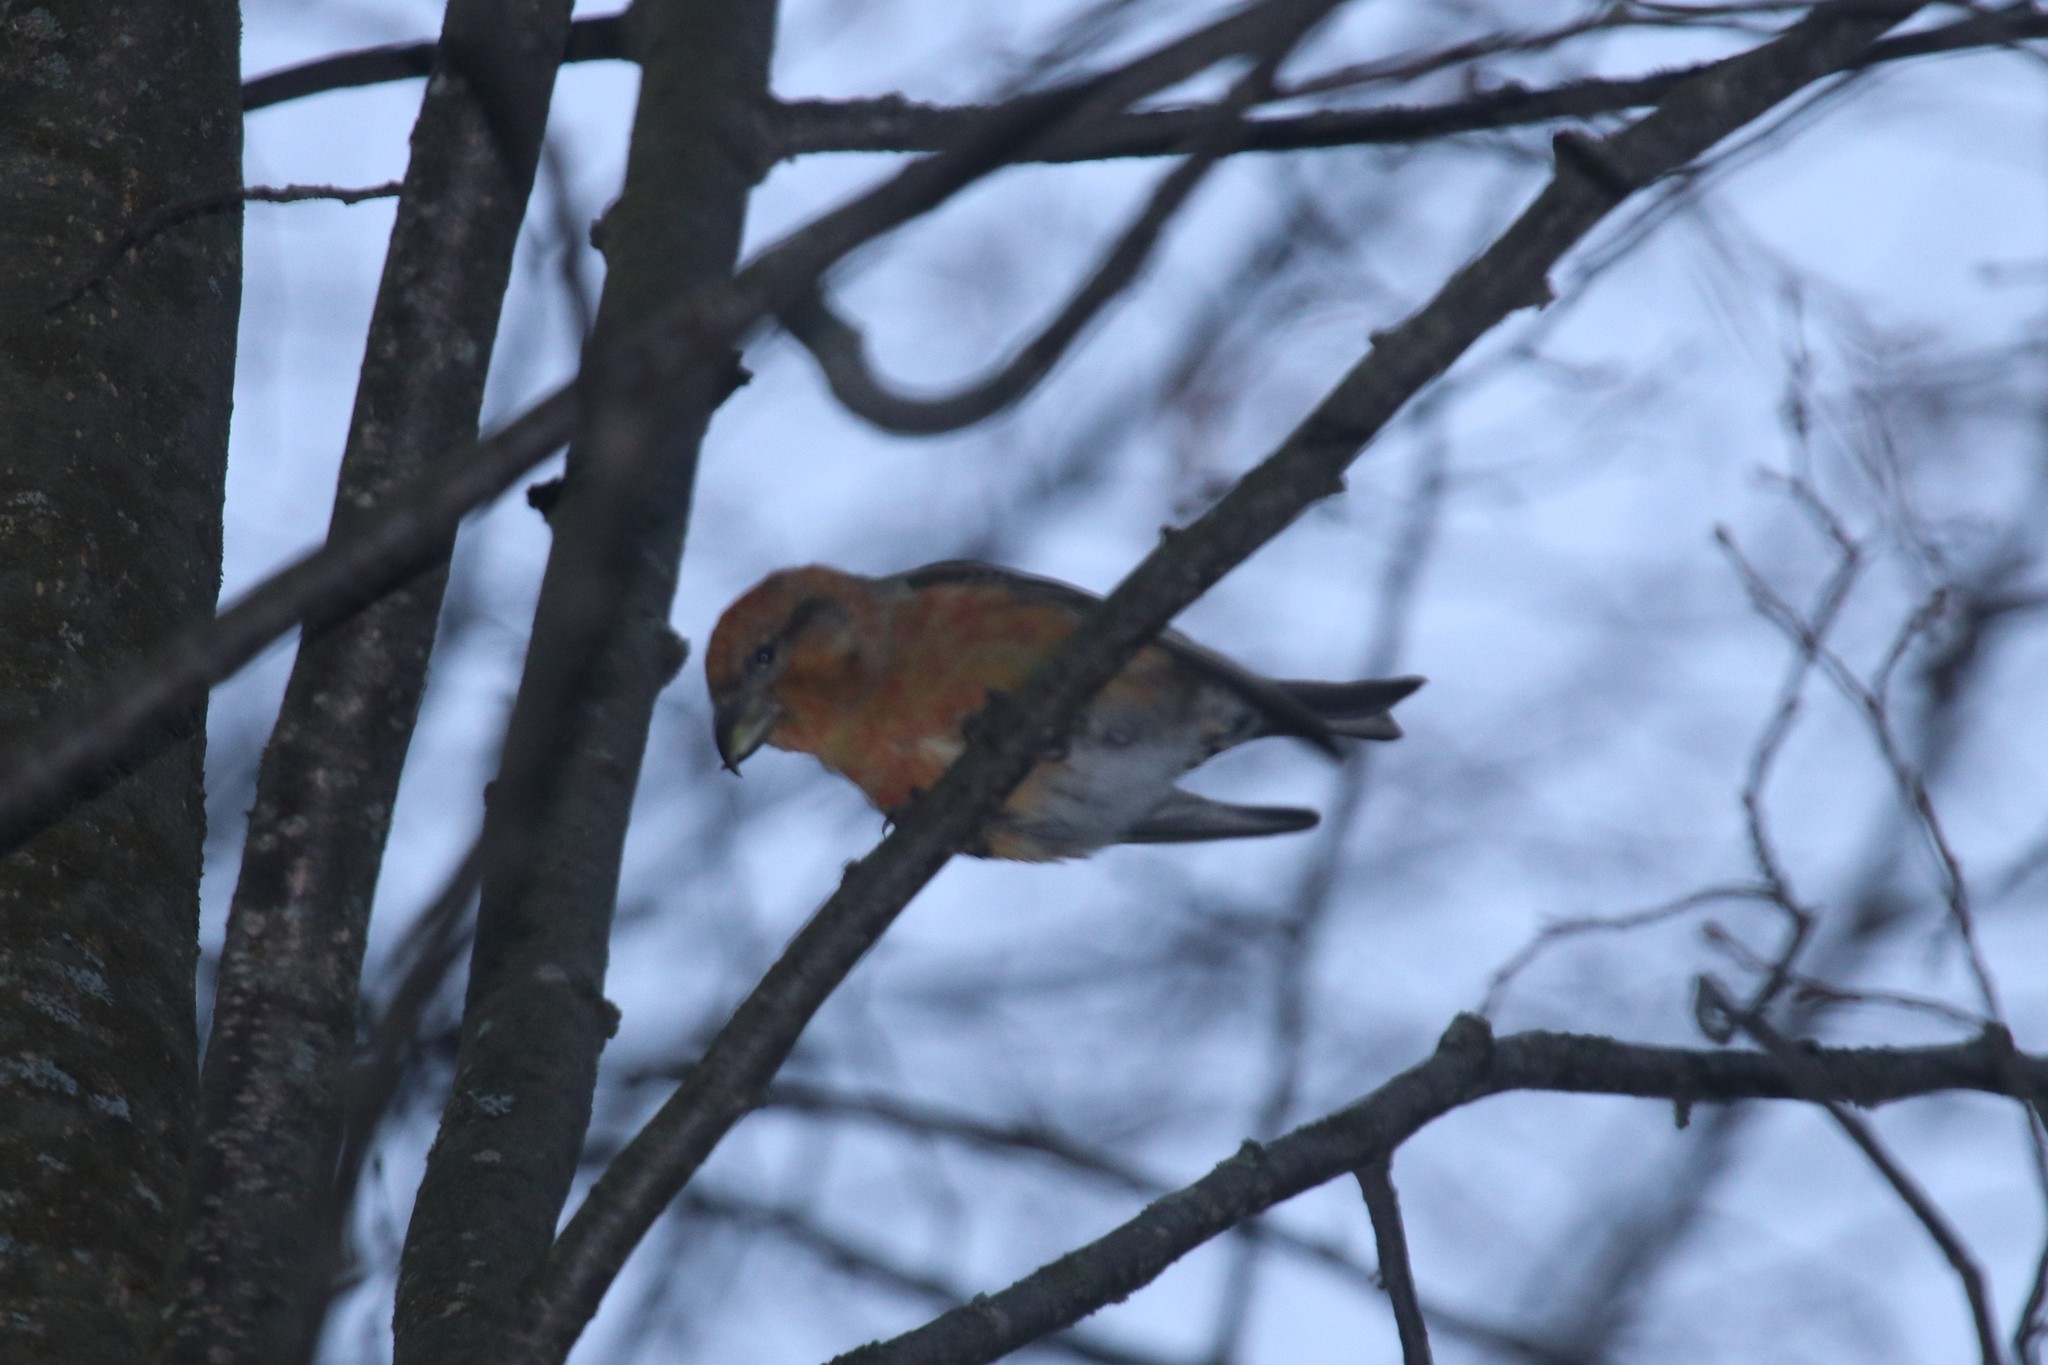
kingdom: Animalia
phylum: Chordata
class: Aves
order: Passeriformes
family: Fringillidae
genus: Loxia
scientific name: Loxia curvirostra
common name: Red crossbill
